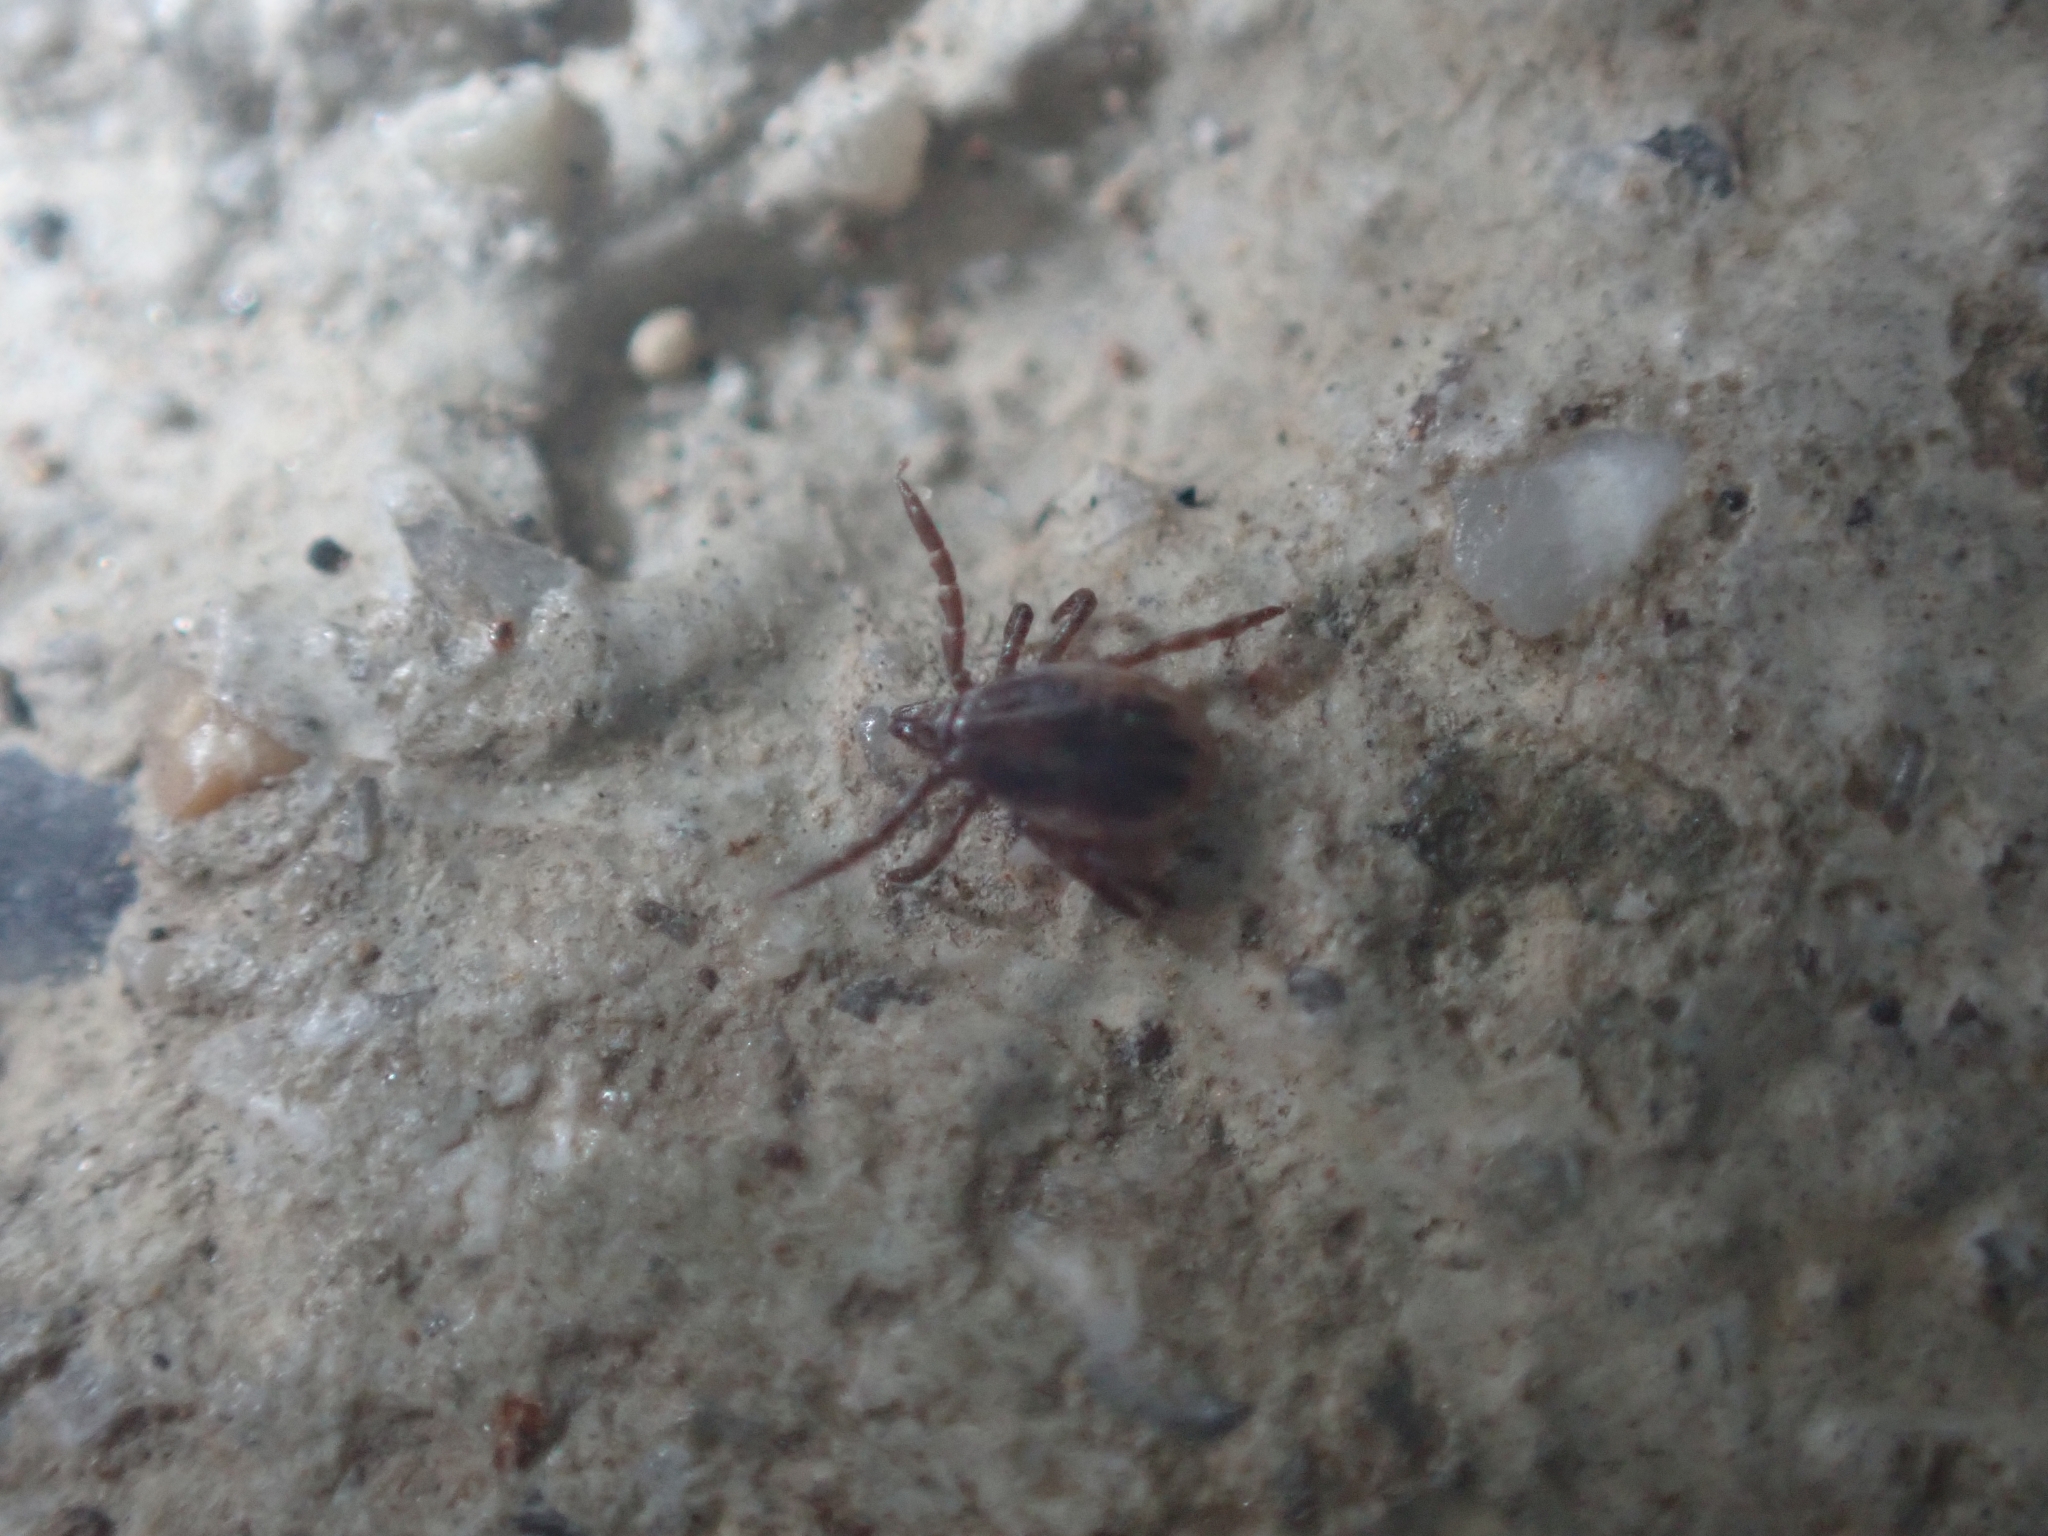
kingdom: Animalia
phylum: Arthropoda
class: Arachnida
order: Ixodida
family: Ixodidae
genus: Ixodes
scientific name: Ixodes ricinus
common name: Castor bean tick
